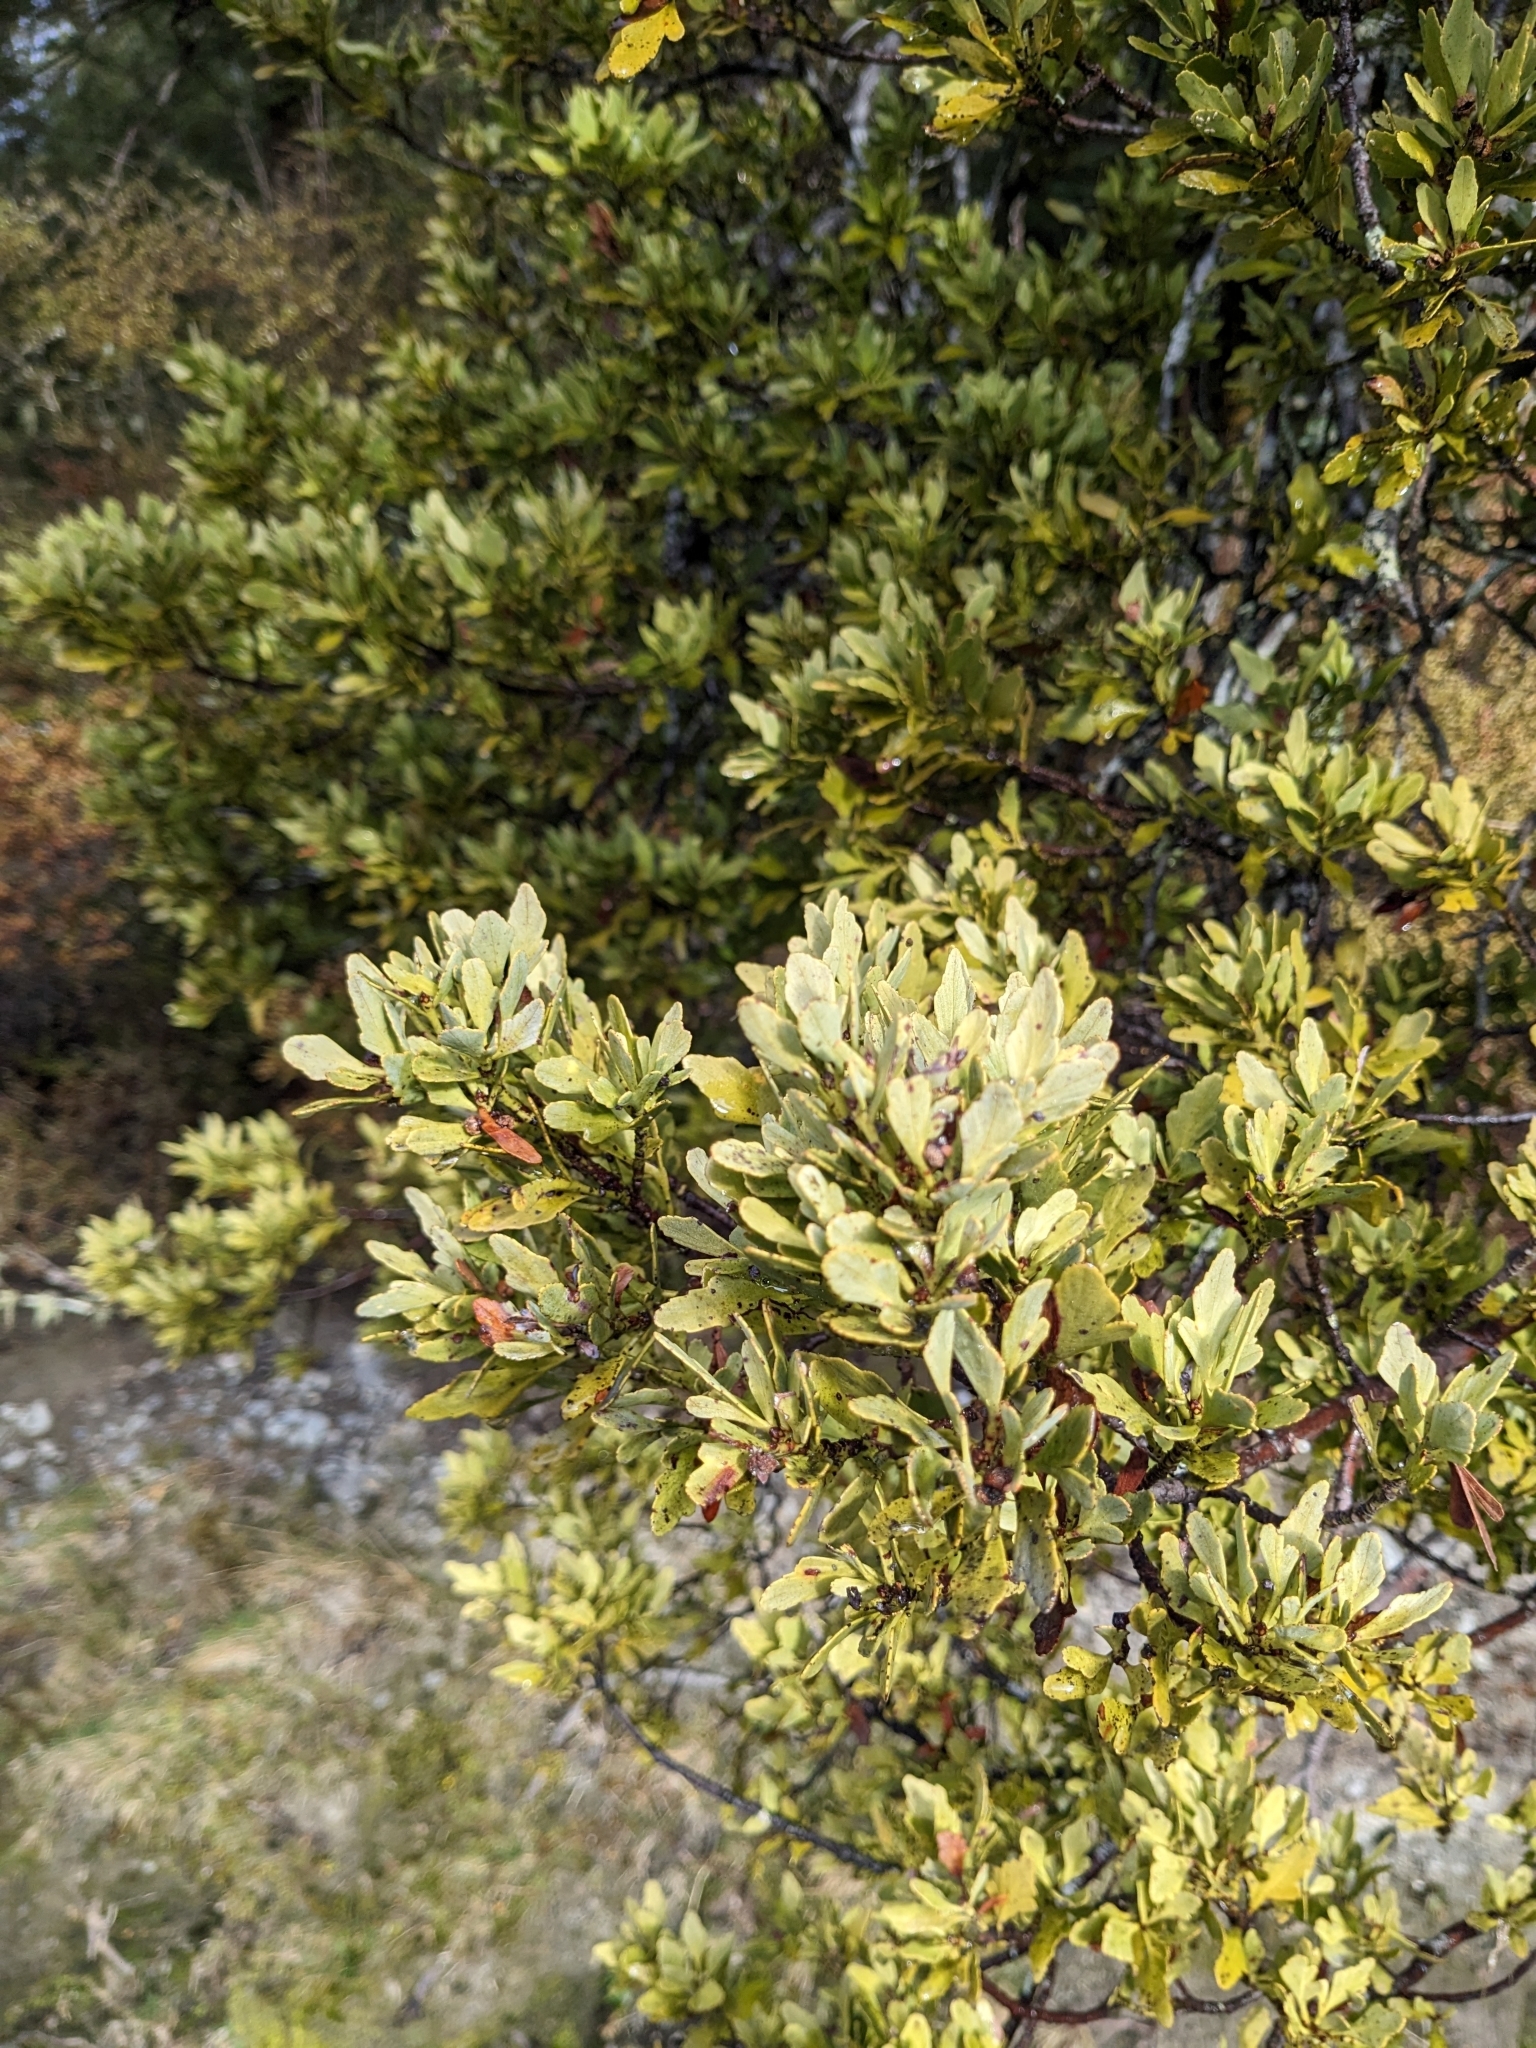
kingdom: Plantae
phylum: Tracheophyta
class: Pinopsida
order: Pinales
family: Phyllocladaceae
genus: Phyllocladus
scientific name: Phyllocladus trichomanoides
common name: Celery pine
